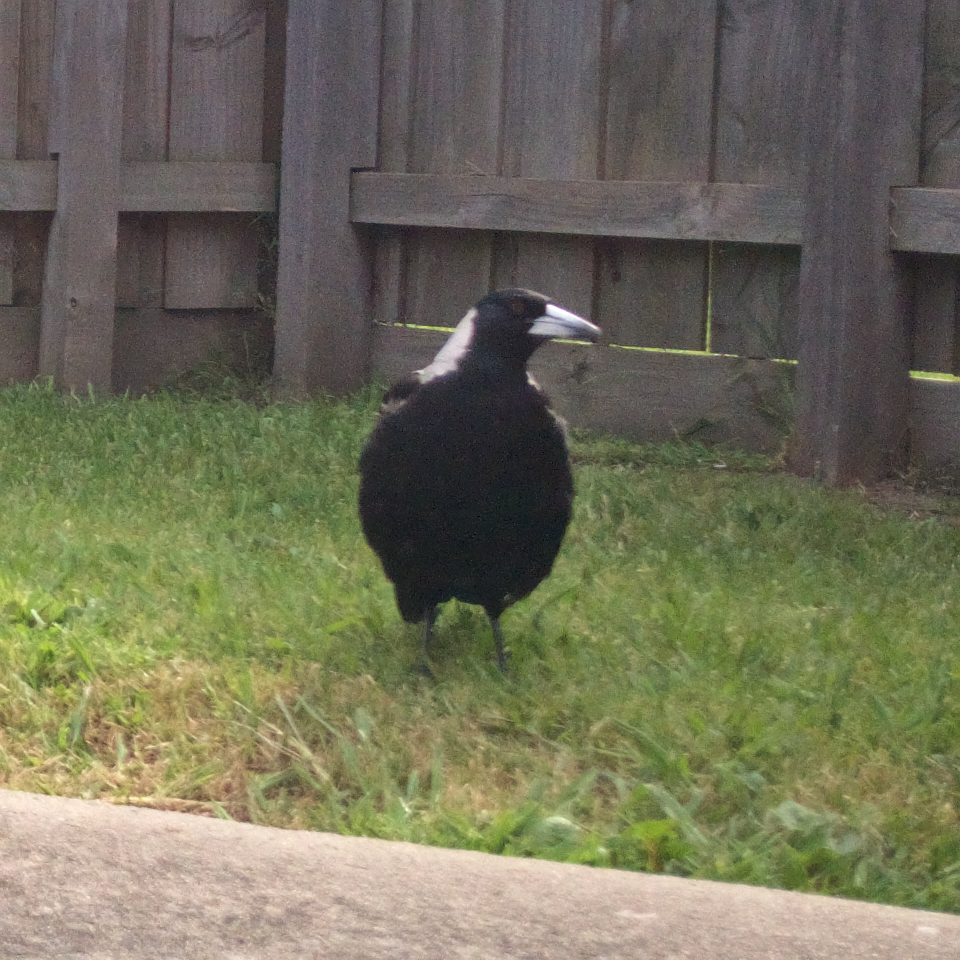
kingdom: Animalia
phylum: Chordata
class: Aves
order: Passeriformes
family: Cracticidae
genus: Gymnorhina
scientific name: Gymnorhina tibicen
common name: Australian magpie
